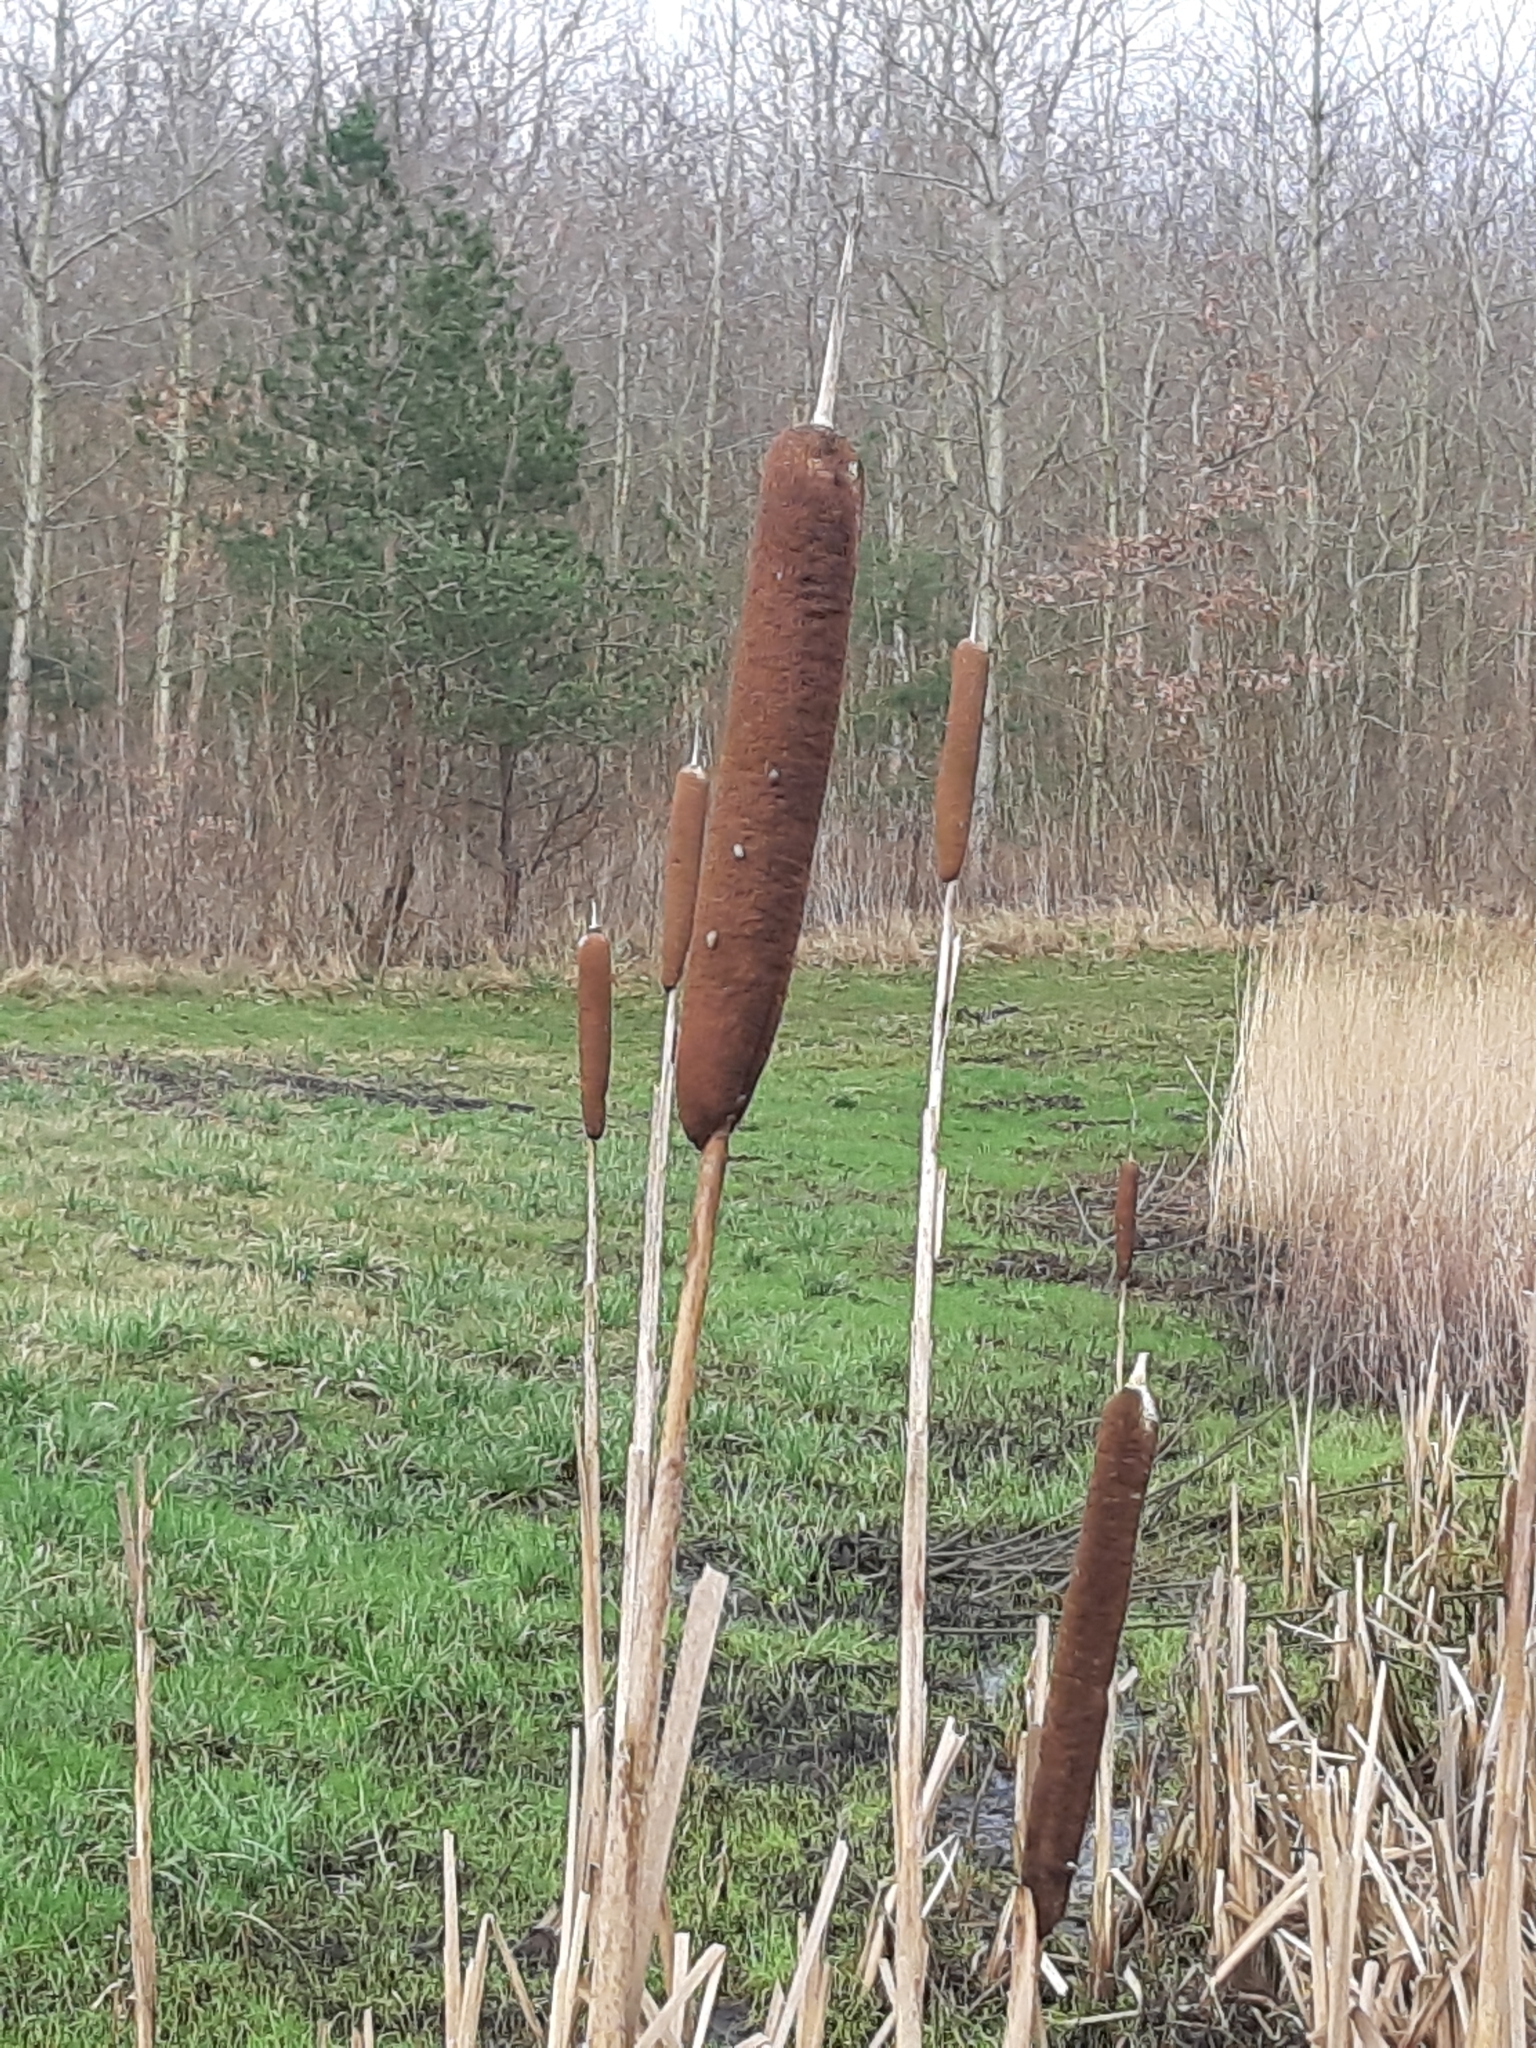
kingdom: Plantae
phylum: Tracheophyta
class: Liliopsida
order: Poales
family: Typhaceae
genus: Typha
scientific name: Typha latifolia
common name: Broadleaf cattail
